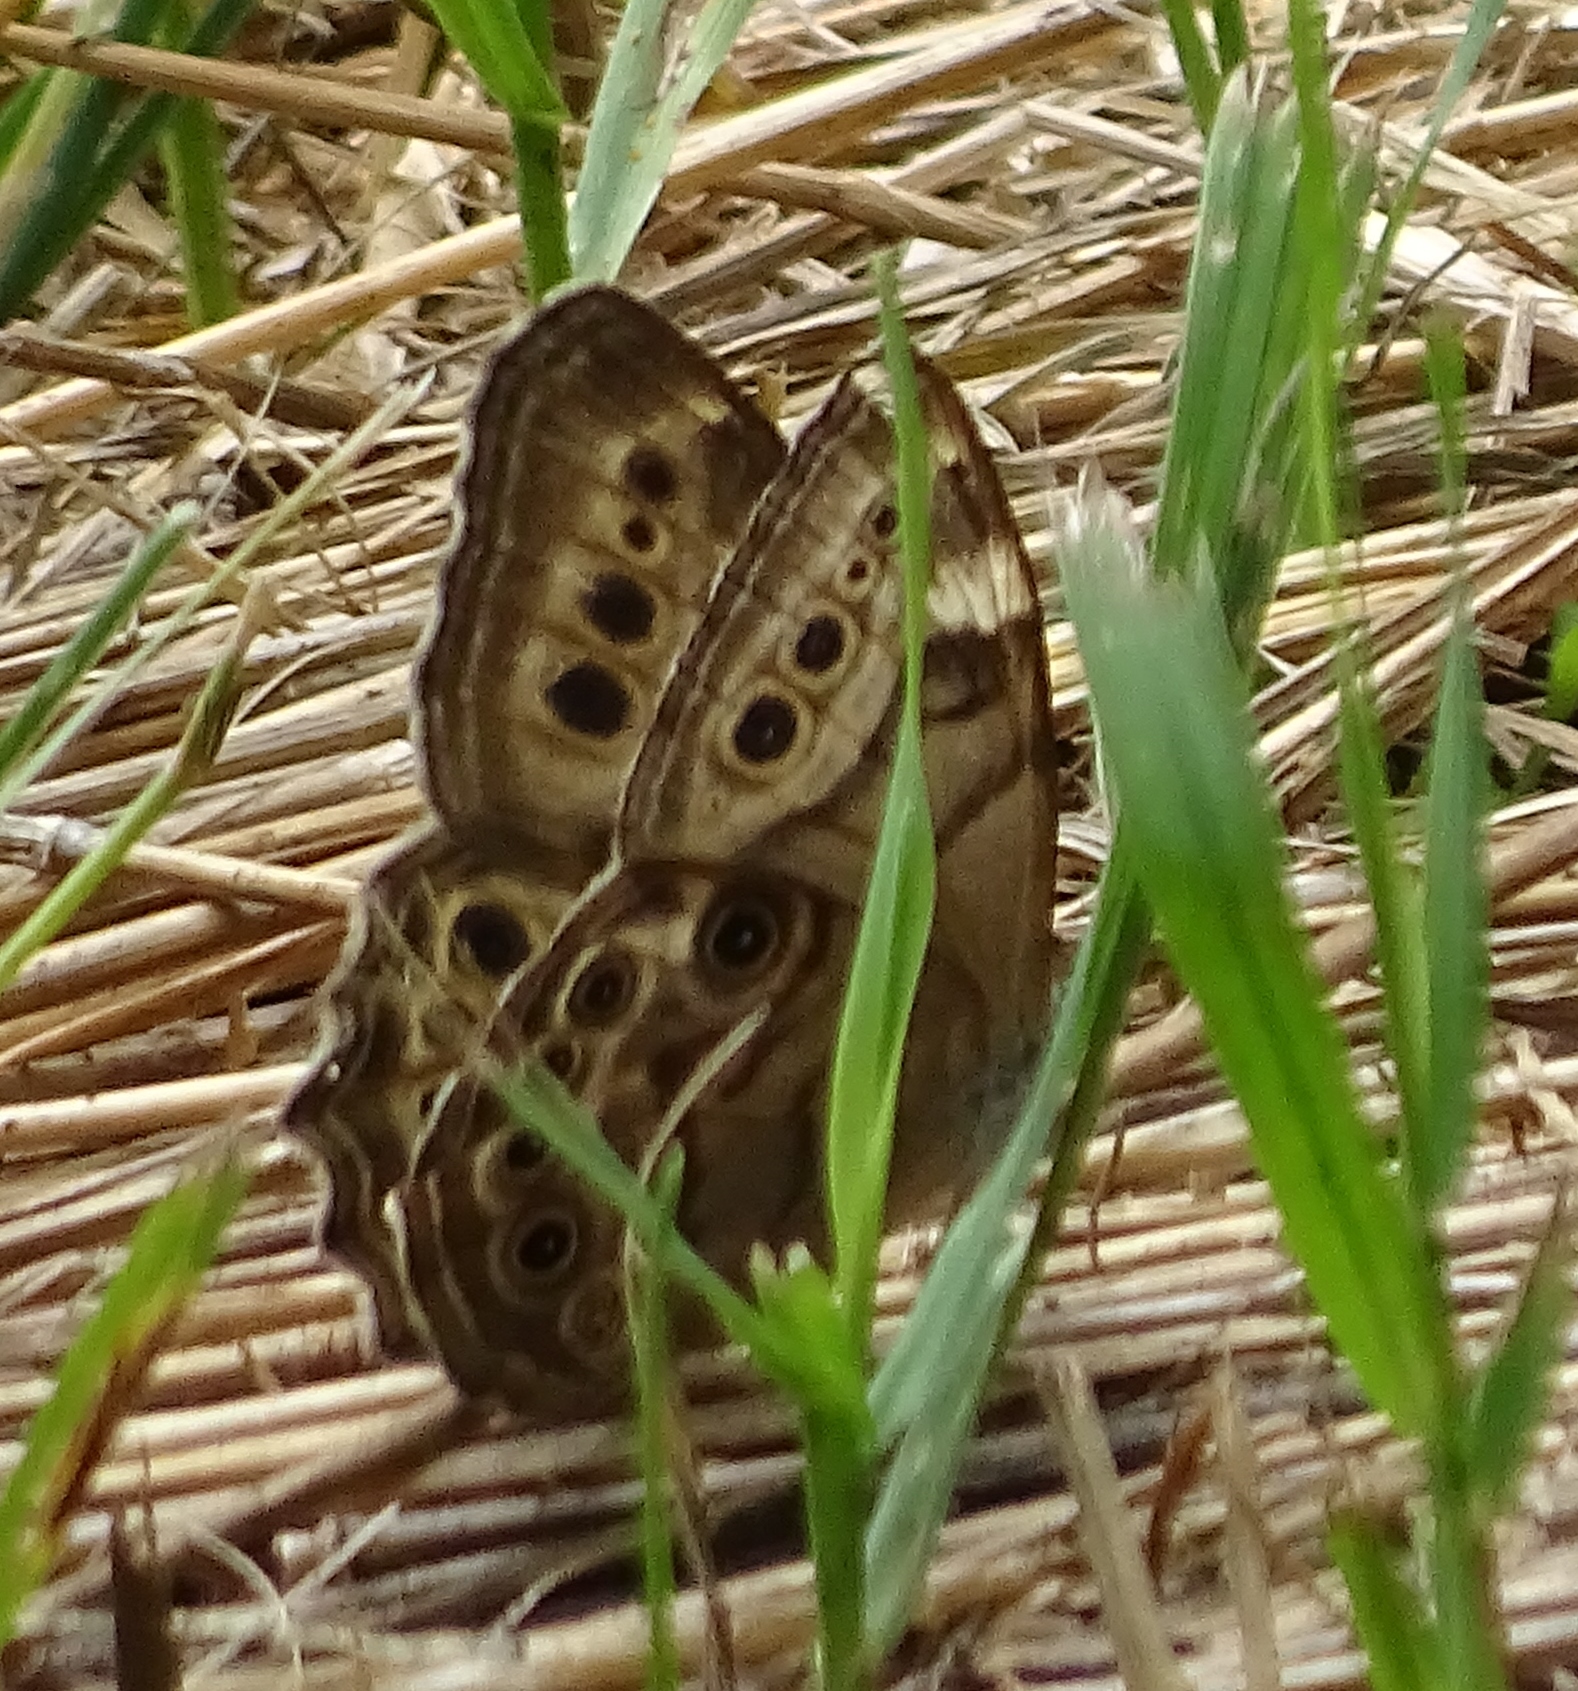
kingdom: Animalia
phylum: Arthropoda
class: Insecta
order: Lepidoptera
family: Nymphalidae
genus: Lethe
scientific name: Lethe anthedon
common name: Northern pearly-eye
